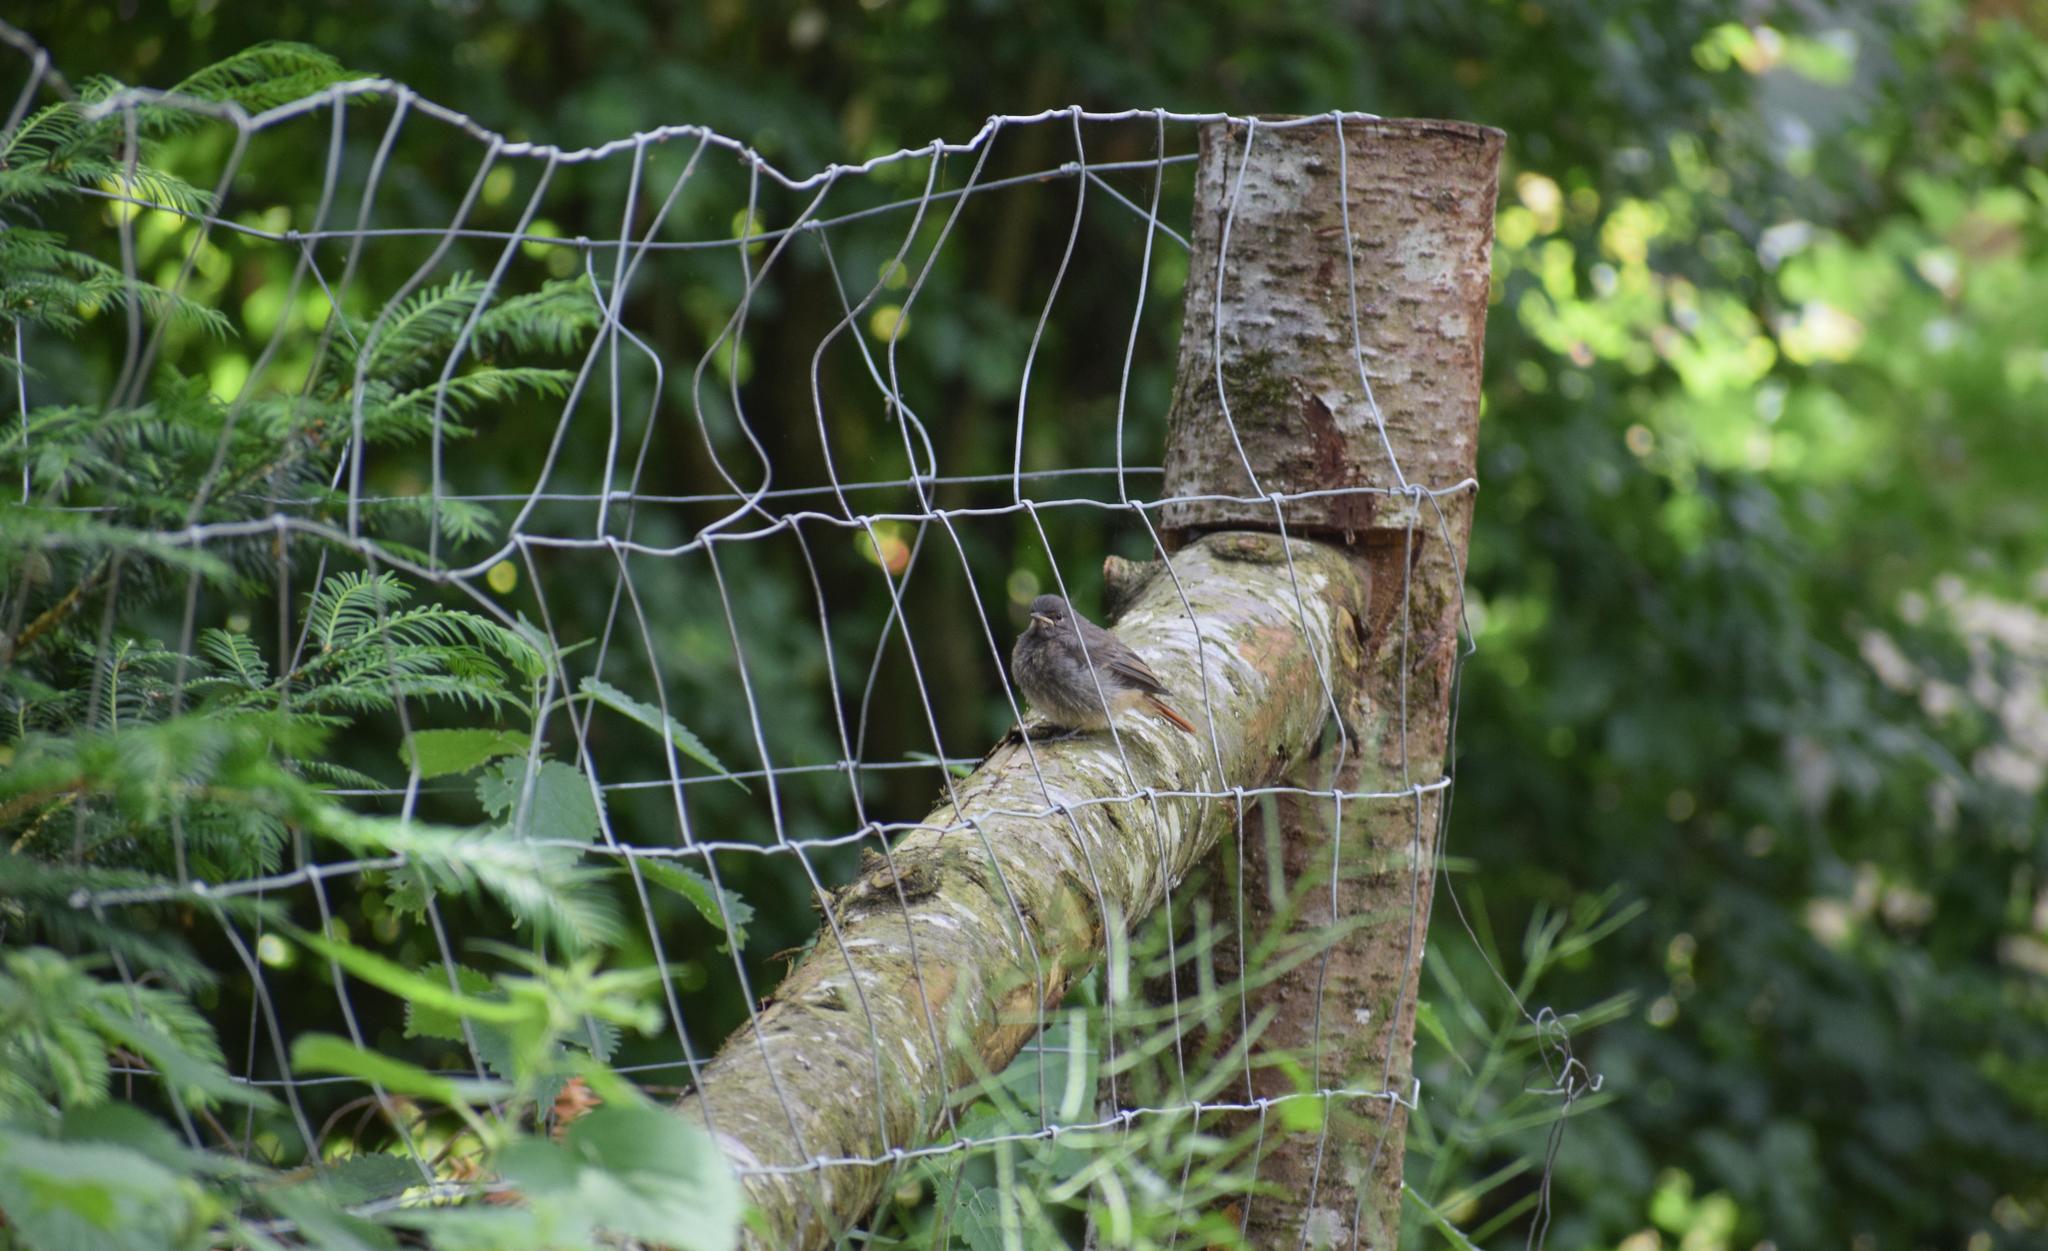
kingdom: Animalia
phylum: Chordata
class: Aves
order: Passeriformes
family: Muscicapidae
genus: Phoenicurus
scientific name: Phoenicurus ochruros
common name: Black redstart
